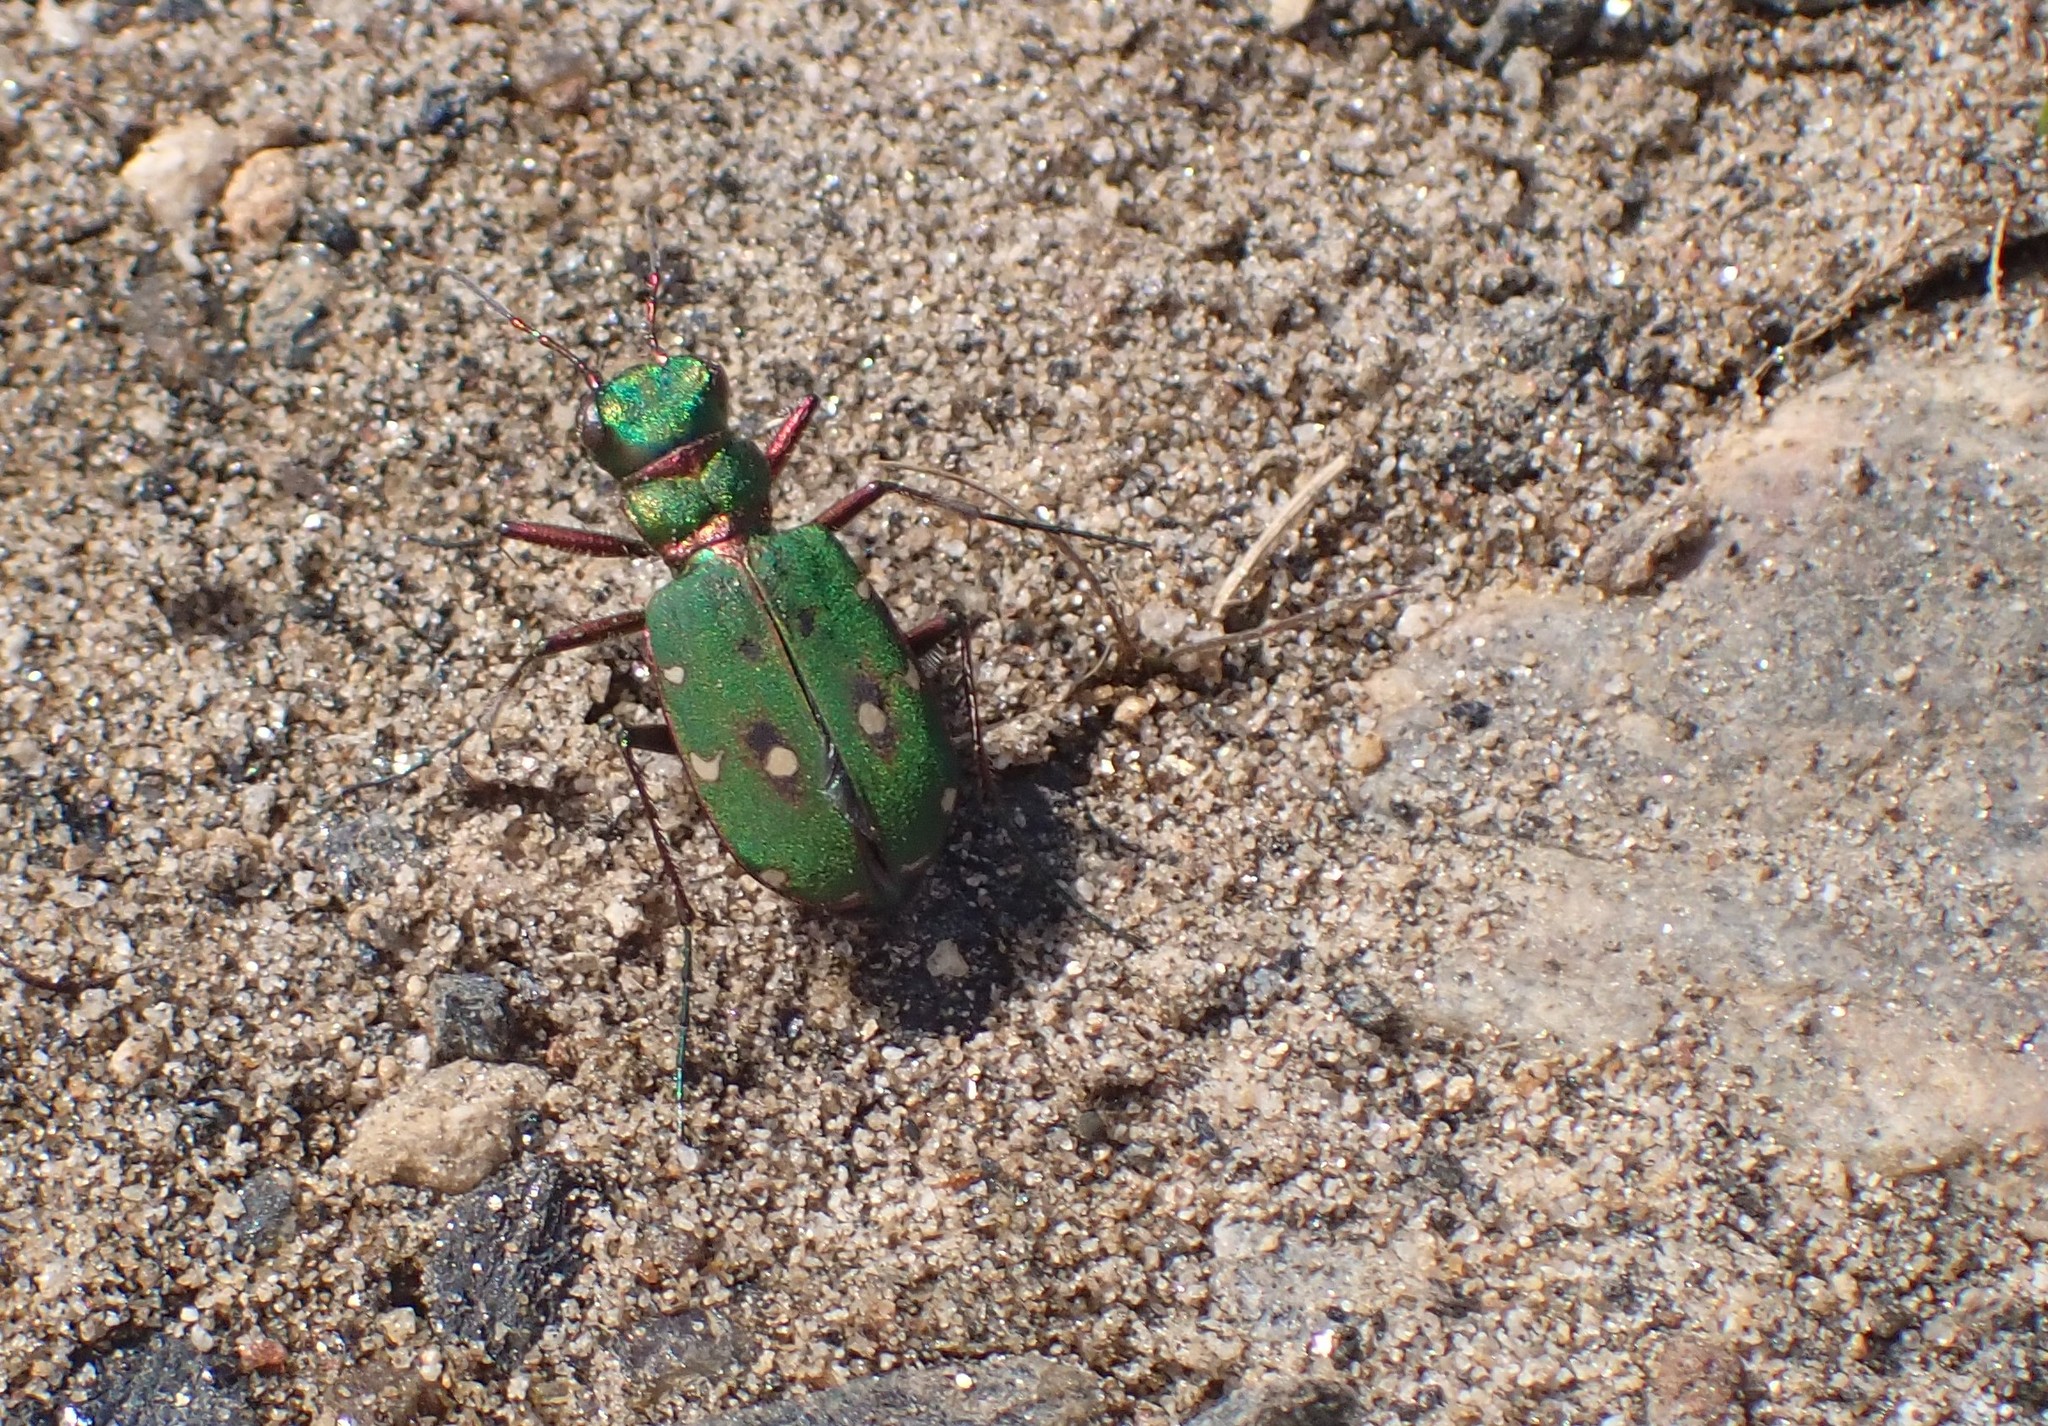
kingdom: Animalia
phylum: Arthropoda
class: Insecta
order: Coleoptera
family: Carabidae
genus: Cicindela
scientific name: Cicindela campestris
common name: Common tiger beetle
